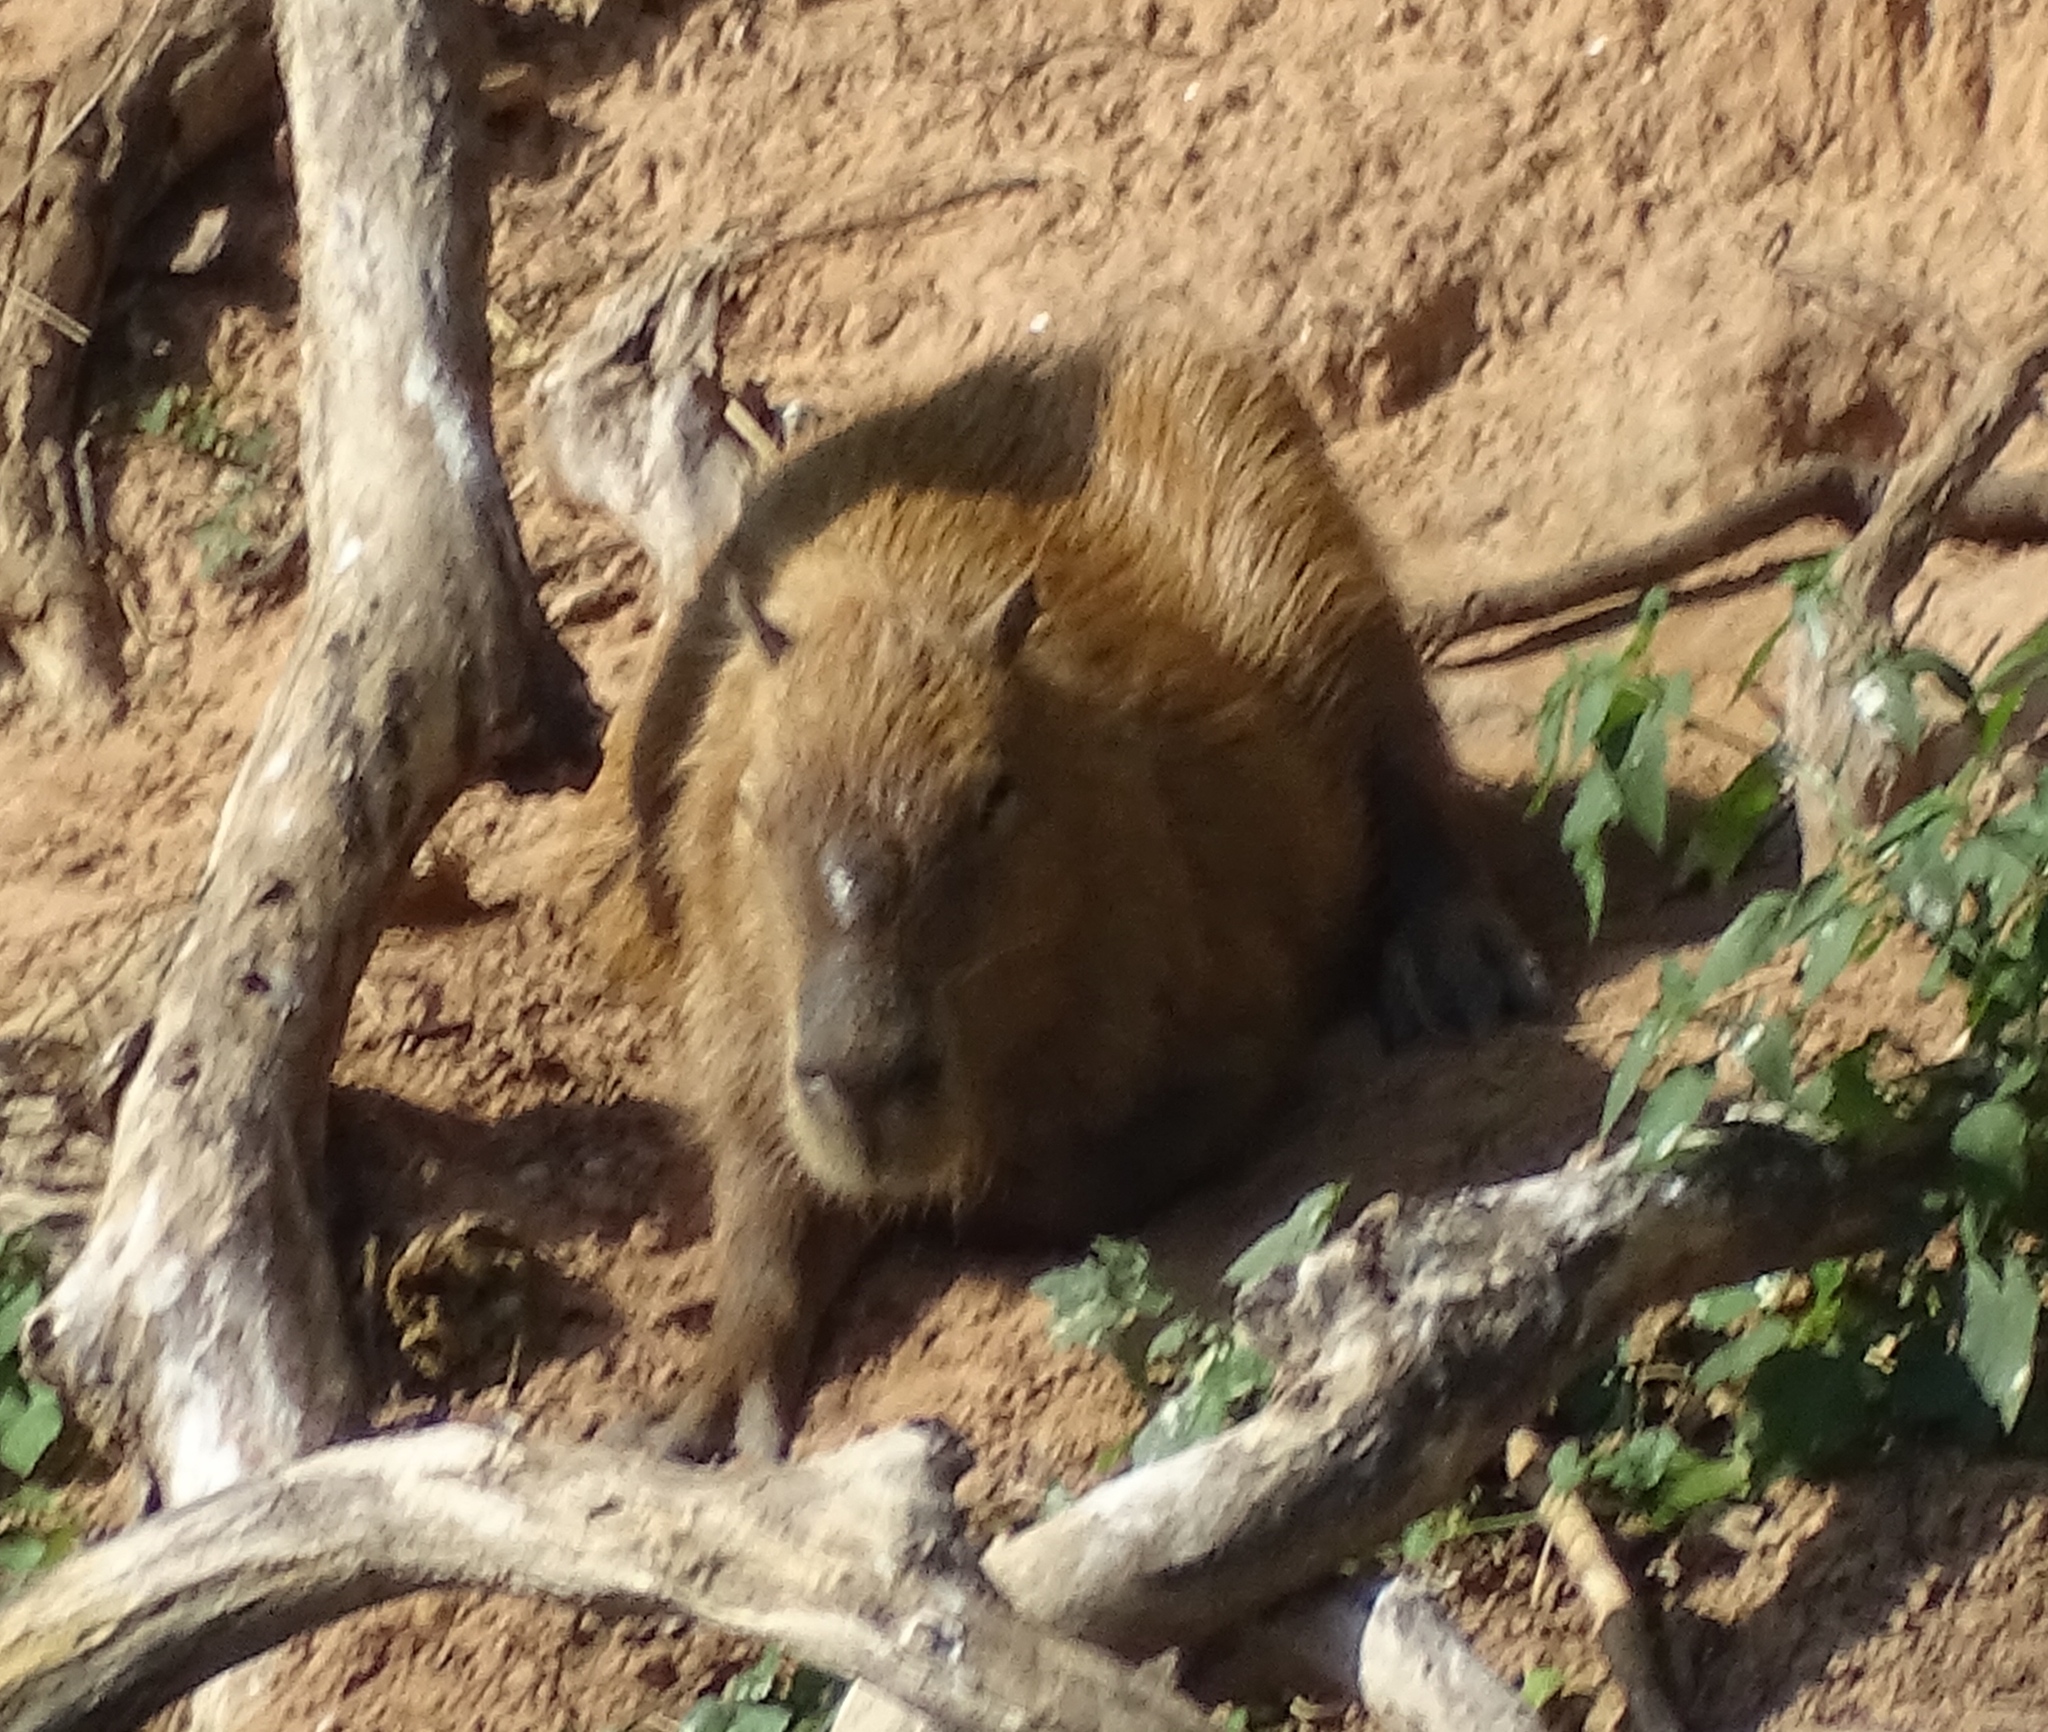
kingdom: Animalia
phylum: Chordata
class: Mammalia
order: Rodentia
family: Caviidae
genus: Hydrochoerus
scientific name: Hydrochoerus hydrochaeris
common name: Capybara
